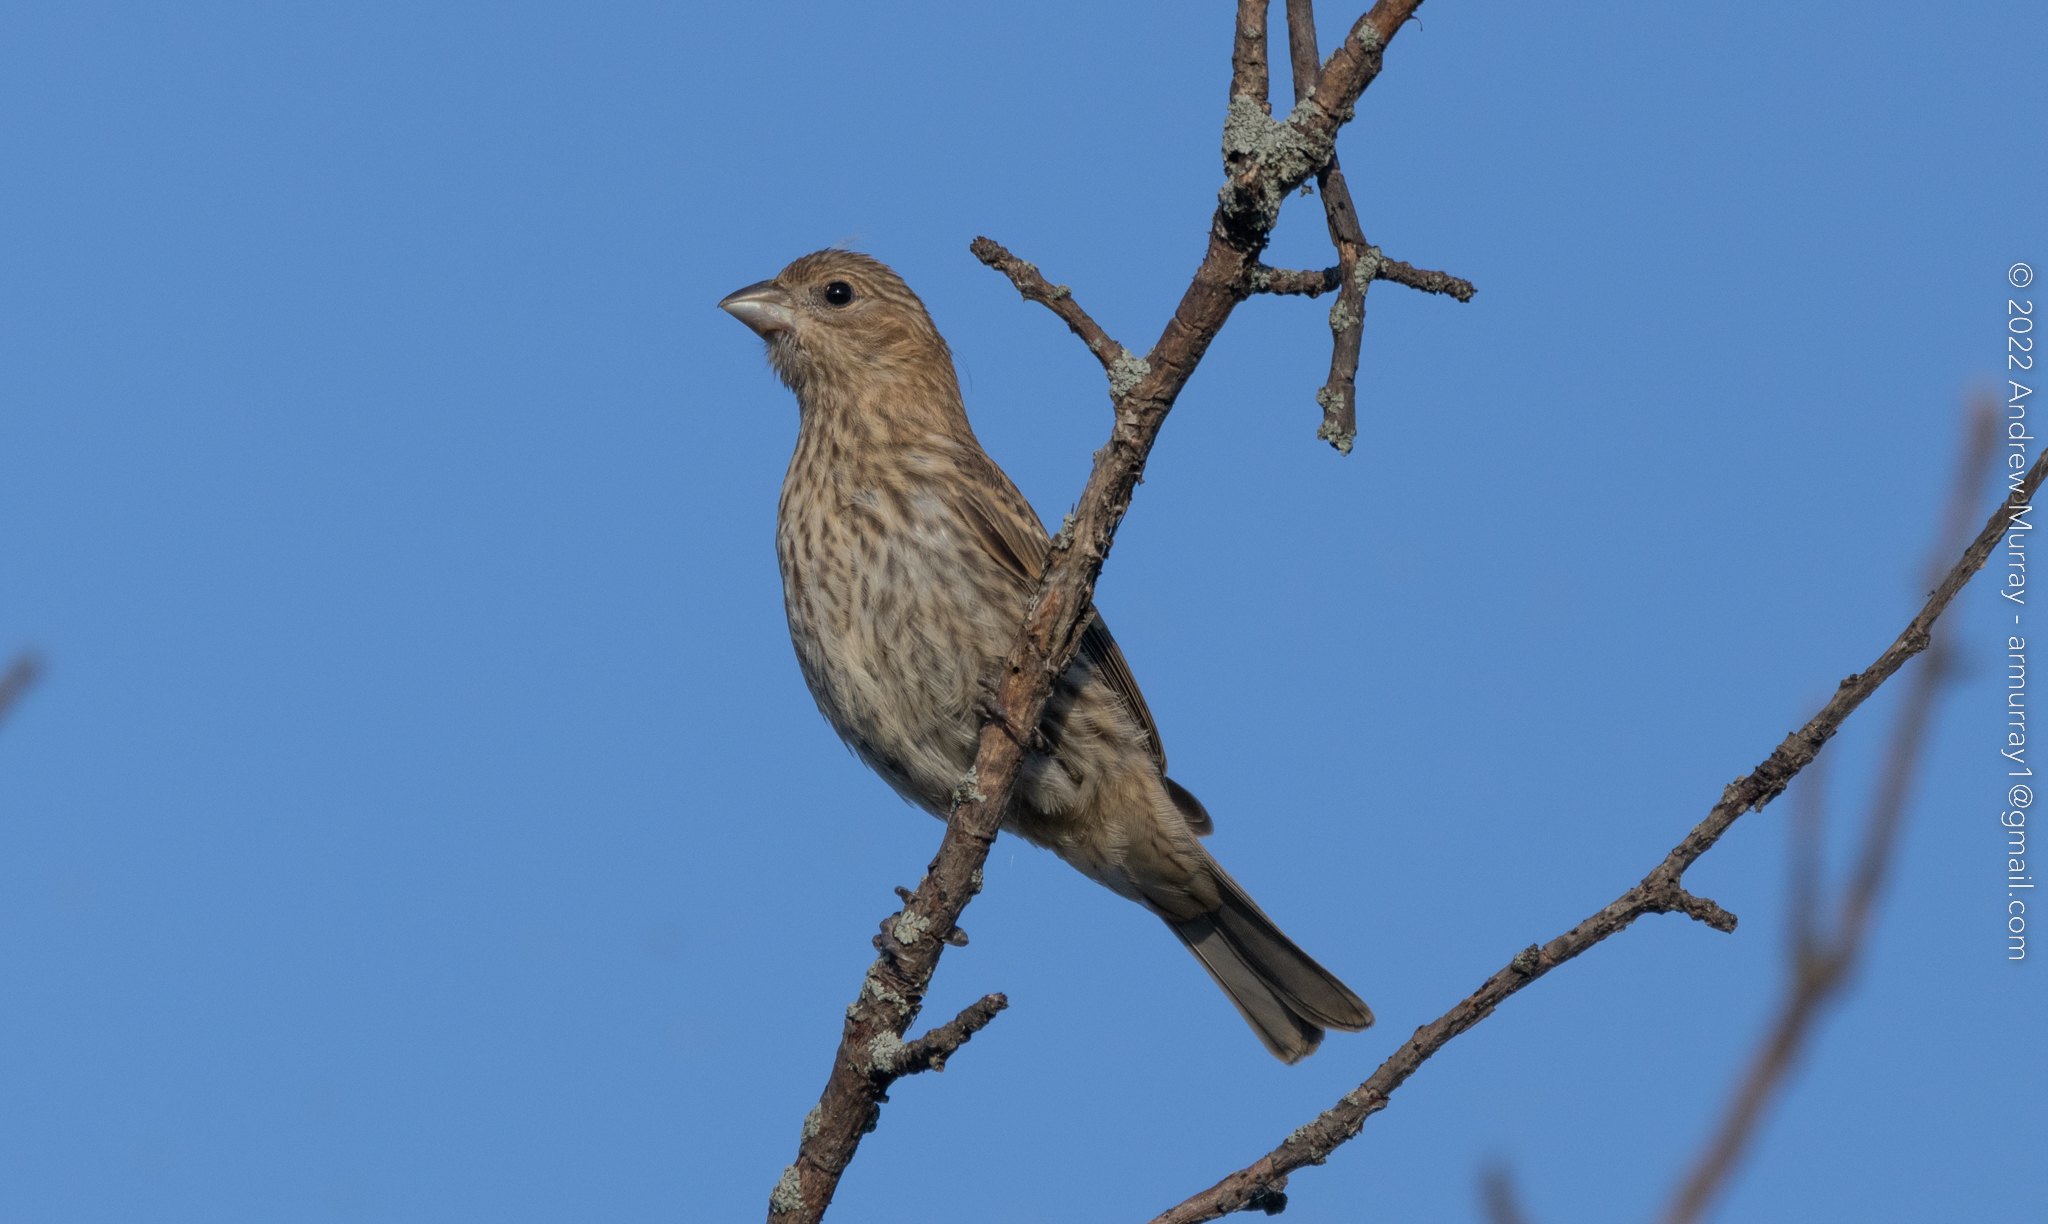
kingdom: Animalia
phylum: Chordata
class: Aves
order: Passeriformes
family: Fringillidae
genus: Haemorhous
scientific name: Haemorhous mexicanus
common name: House finch
